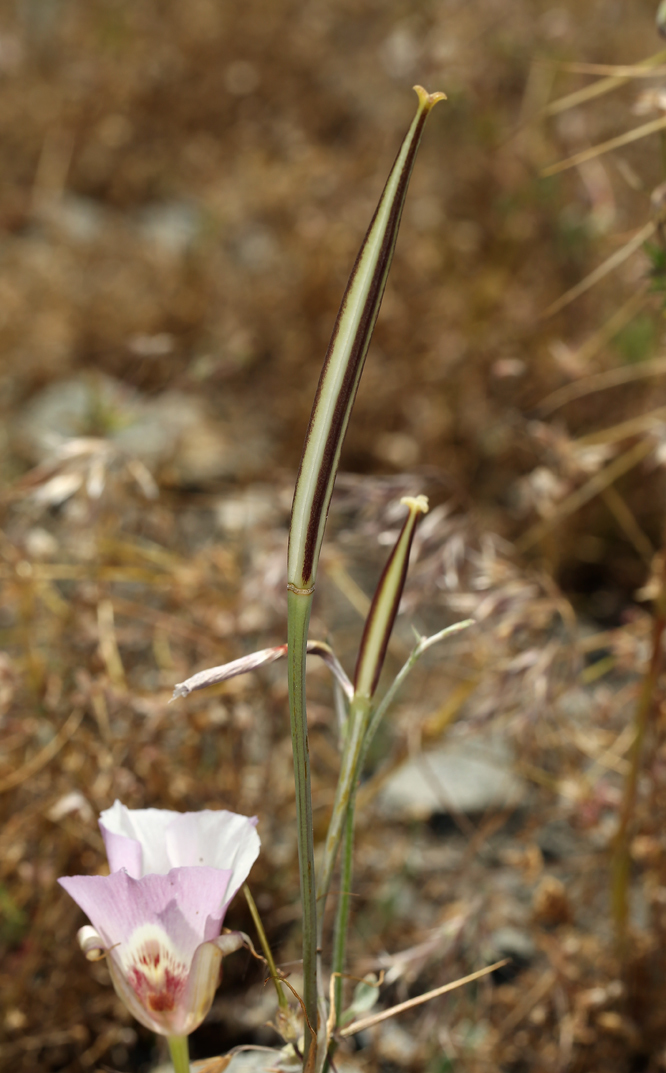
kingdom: Plantae
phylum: Tracheophyta
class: Liliopsida
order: Liliales
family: Liliaceae
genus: Calochortus
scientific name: Calochortus venustus
